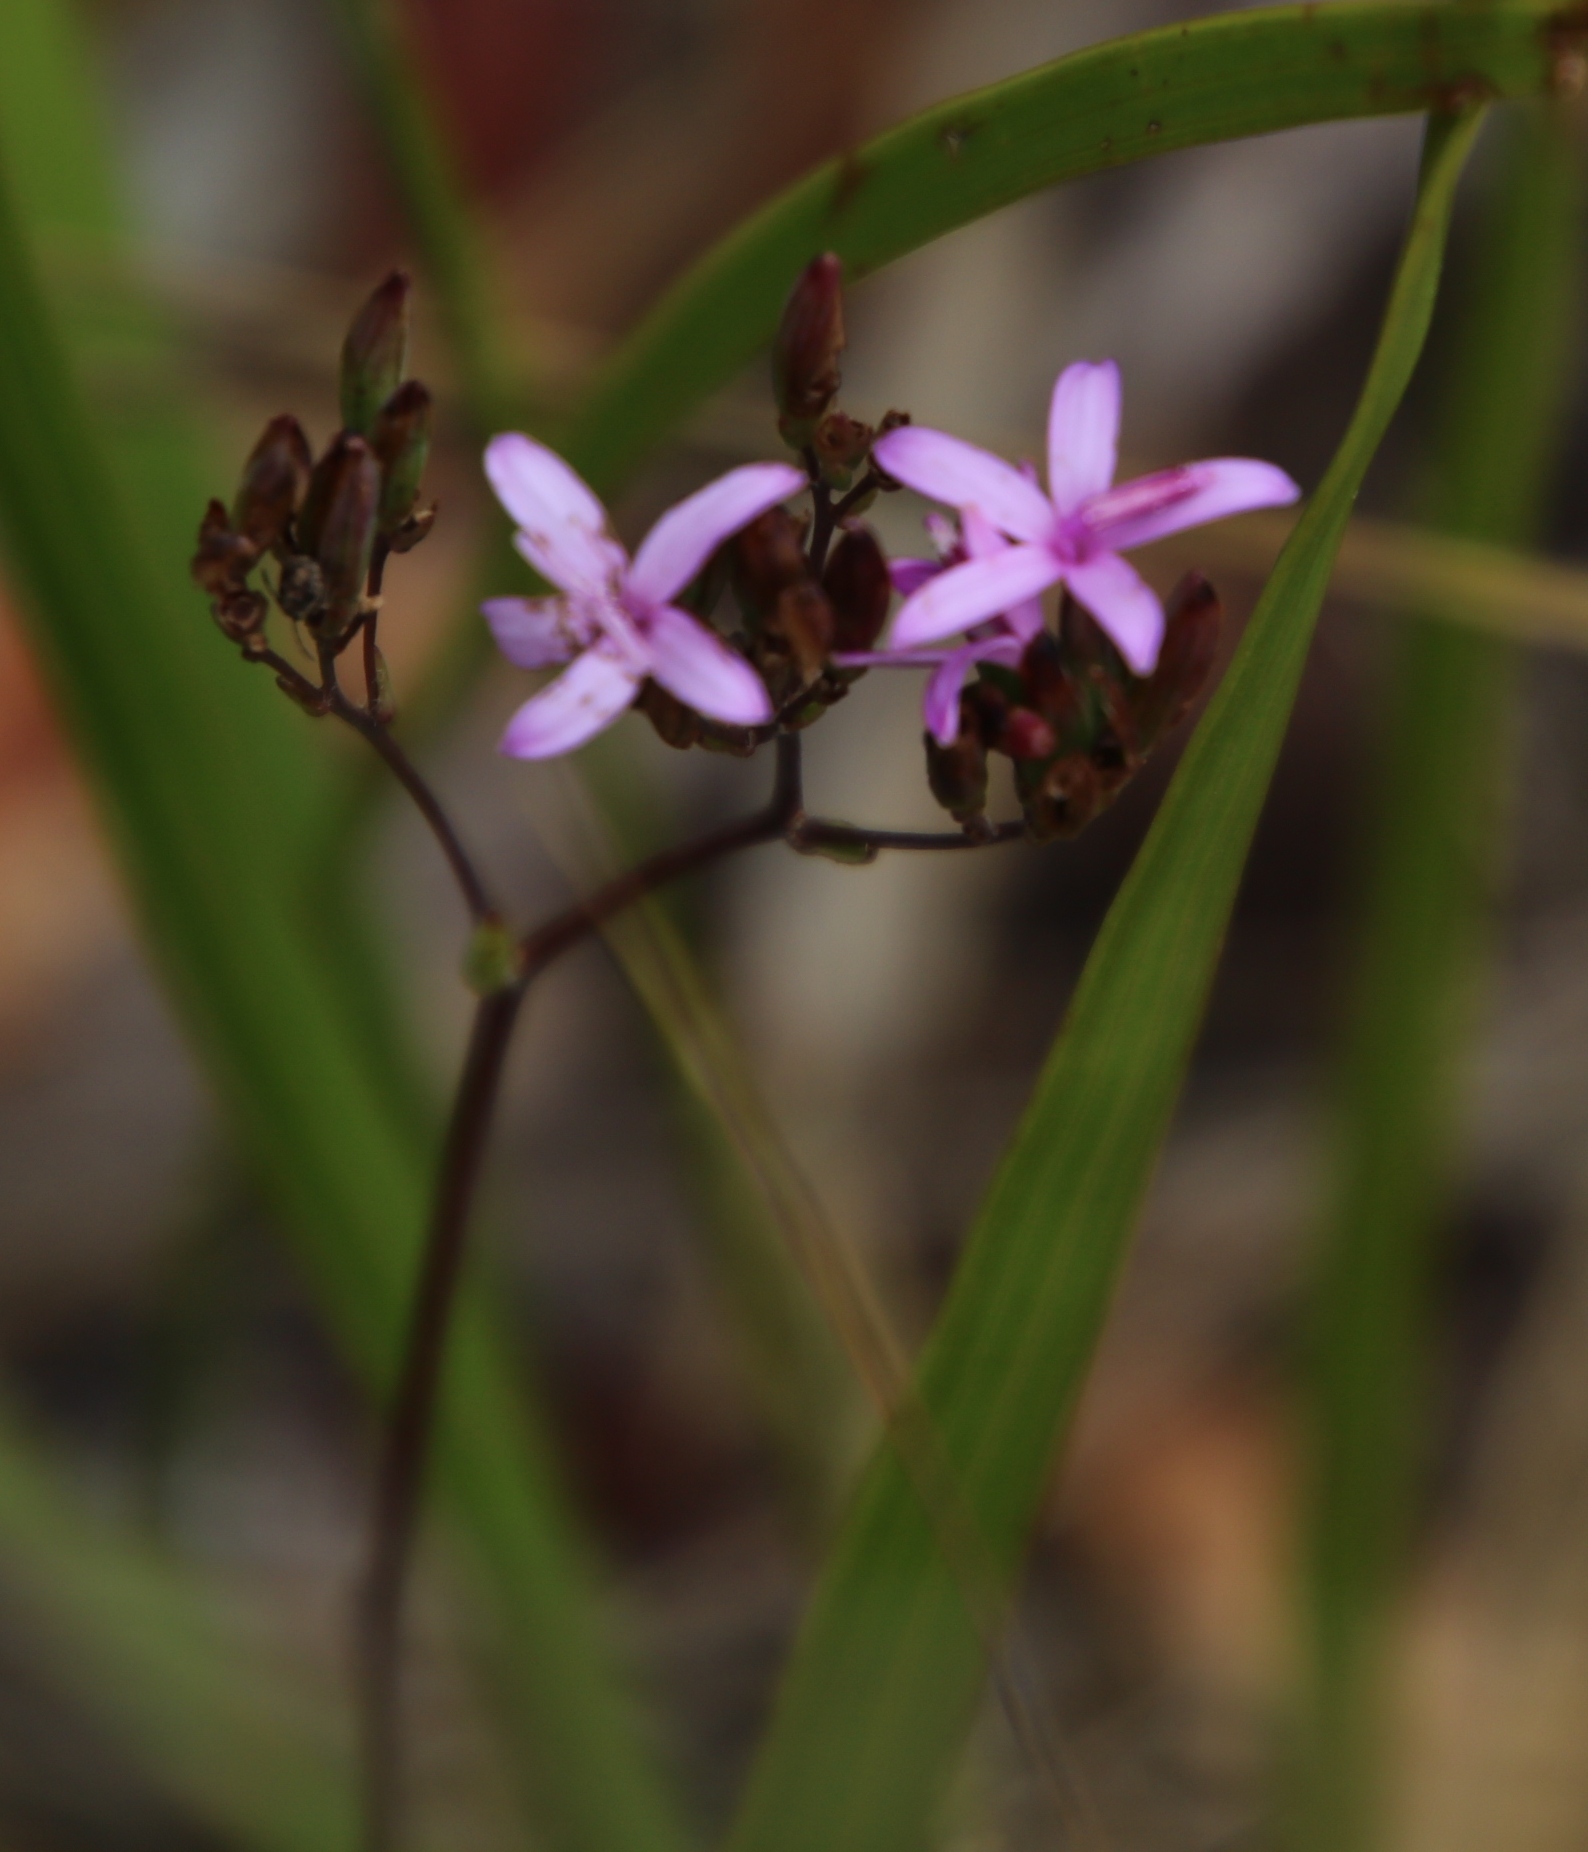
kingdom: Plantae
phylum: Tracheophyta
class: Magnoliopsida
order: Asterales
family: Asteraceae
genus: Corymbium
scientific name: Corymbium glabrum
